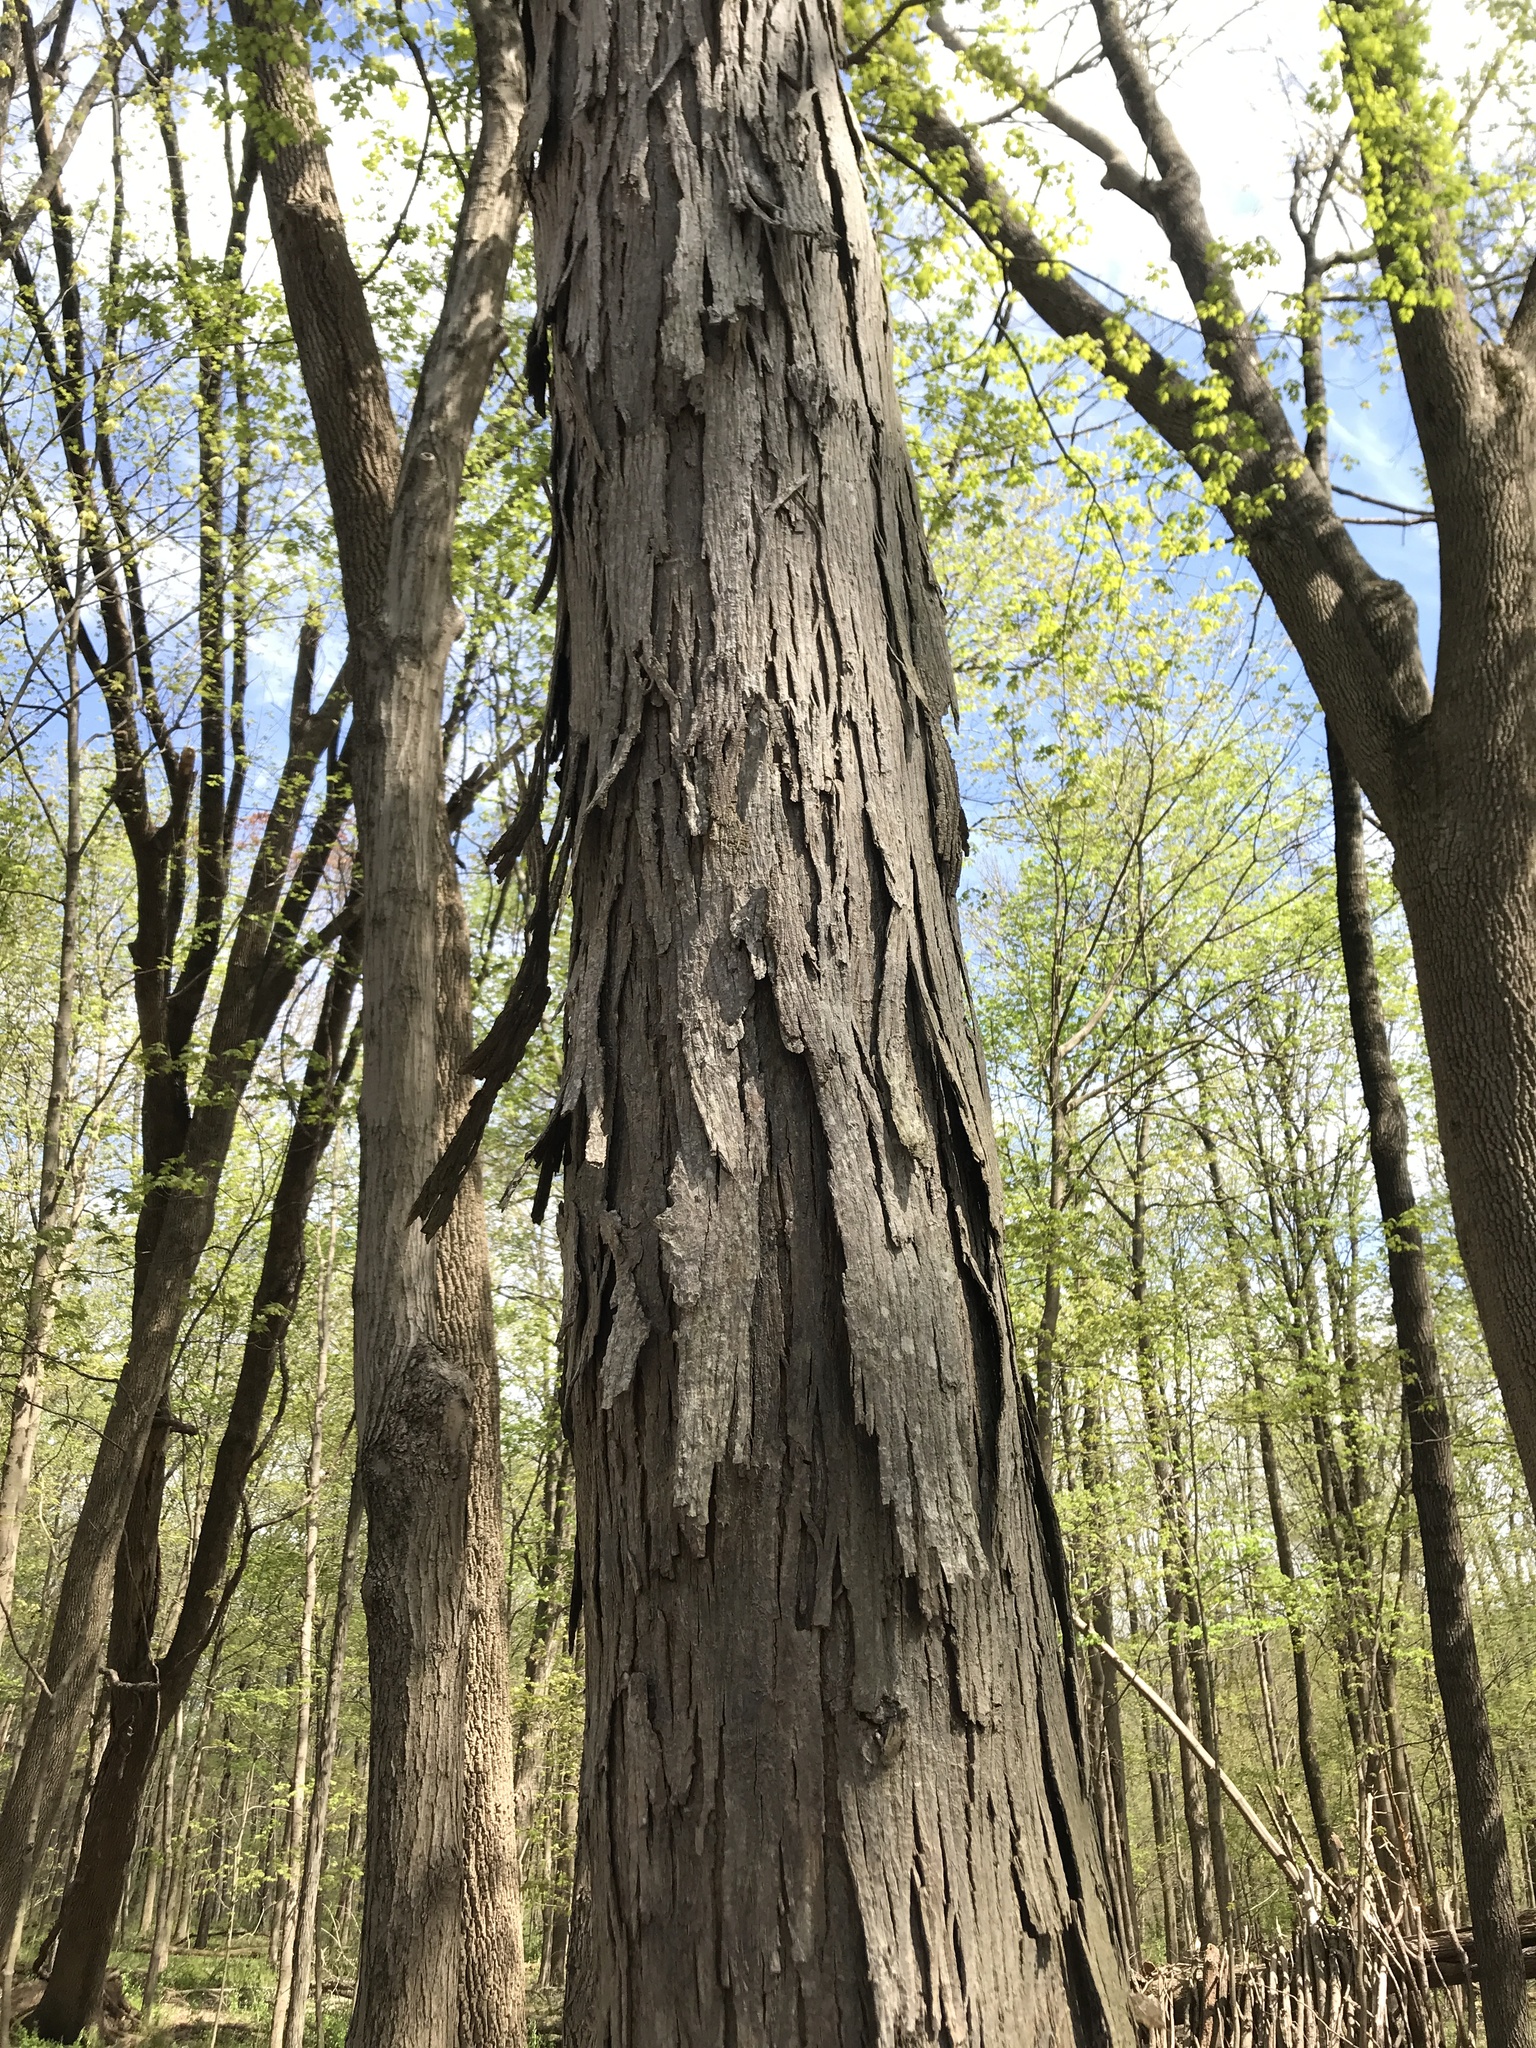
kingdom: Plantae
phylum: Tracheophyta
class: Magnoliopsida
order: Fagales
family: Juglandaceae
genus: Carya
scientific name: Carya ovata
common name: Shagbark hickory
